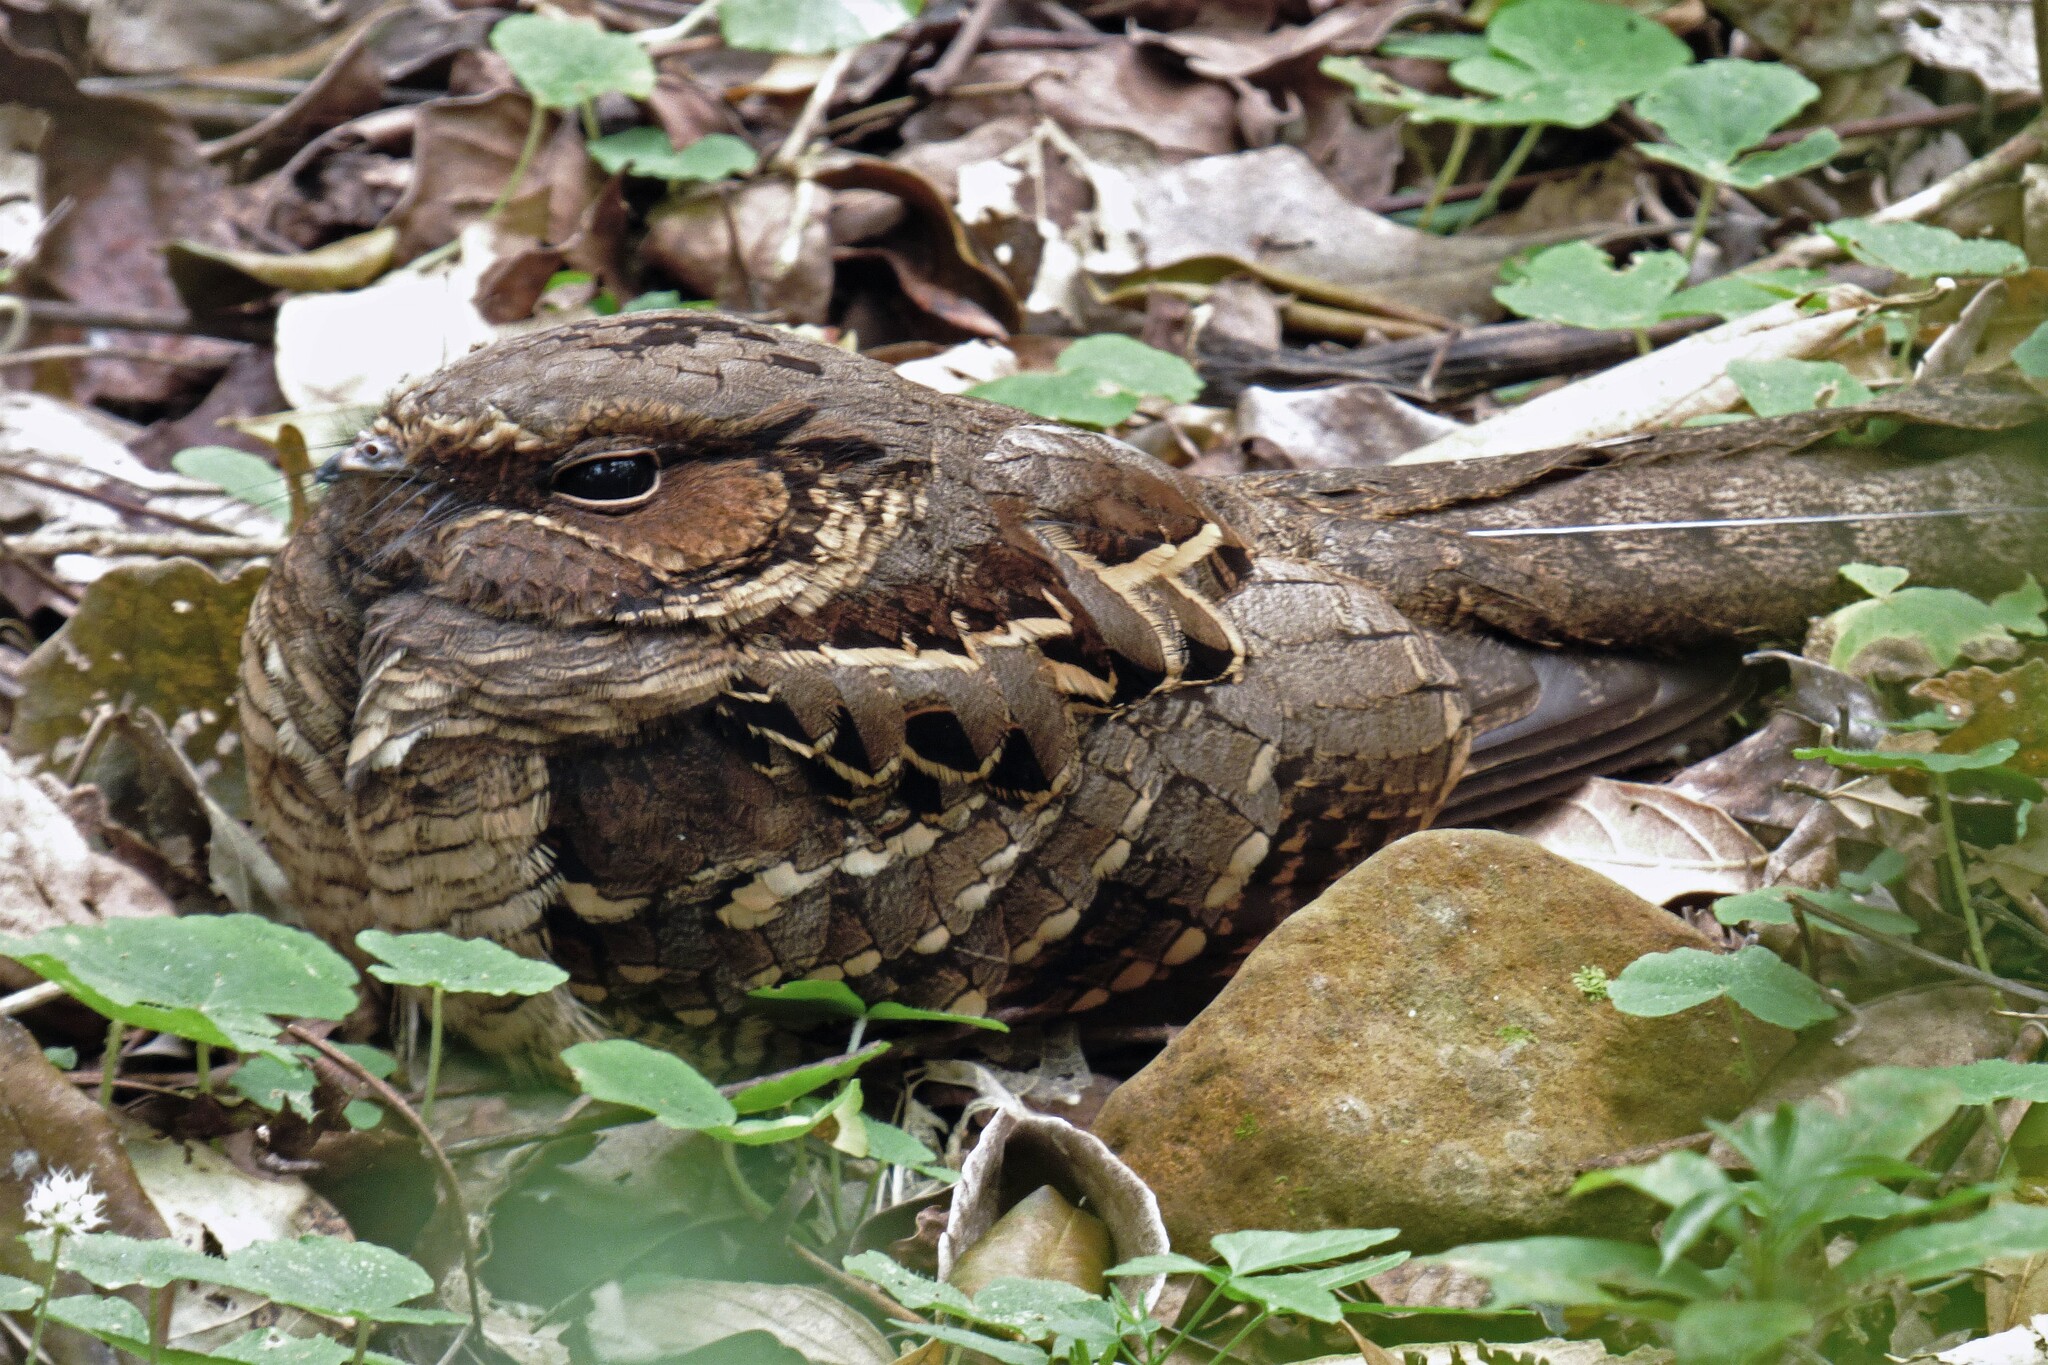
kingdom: Animalia
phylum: Chordata
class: Aves
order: Caprimulgiformes
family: Caprimulgidae
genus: Nyctidromus
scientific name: Nyctidromus albicollis
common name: Pauraque
